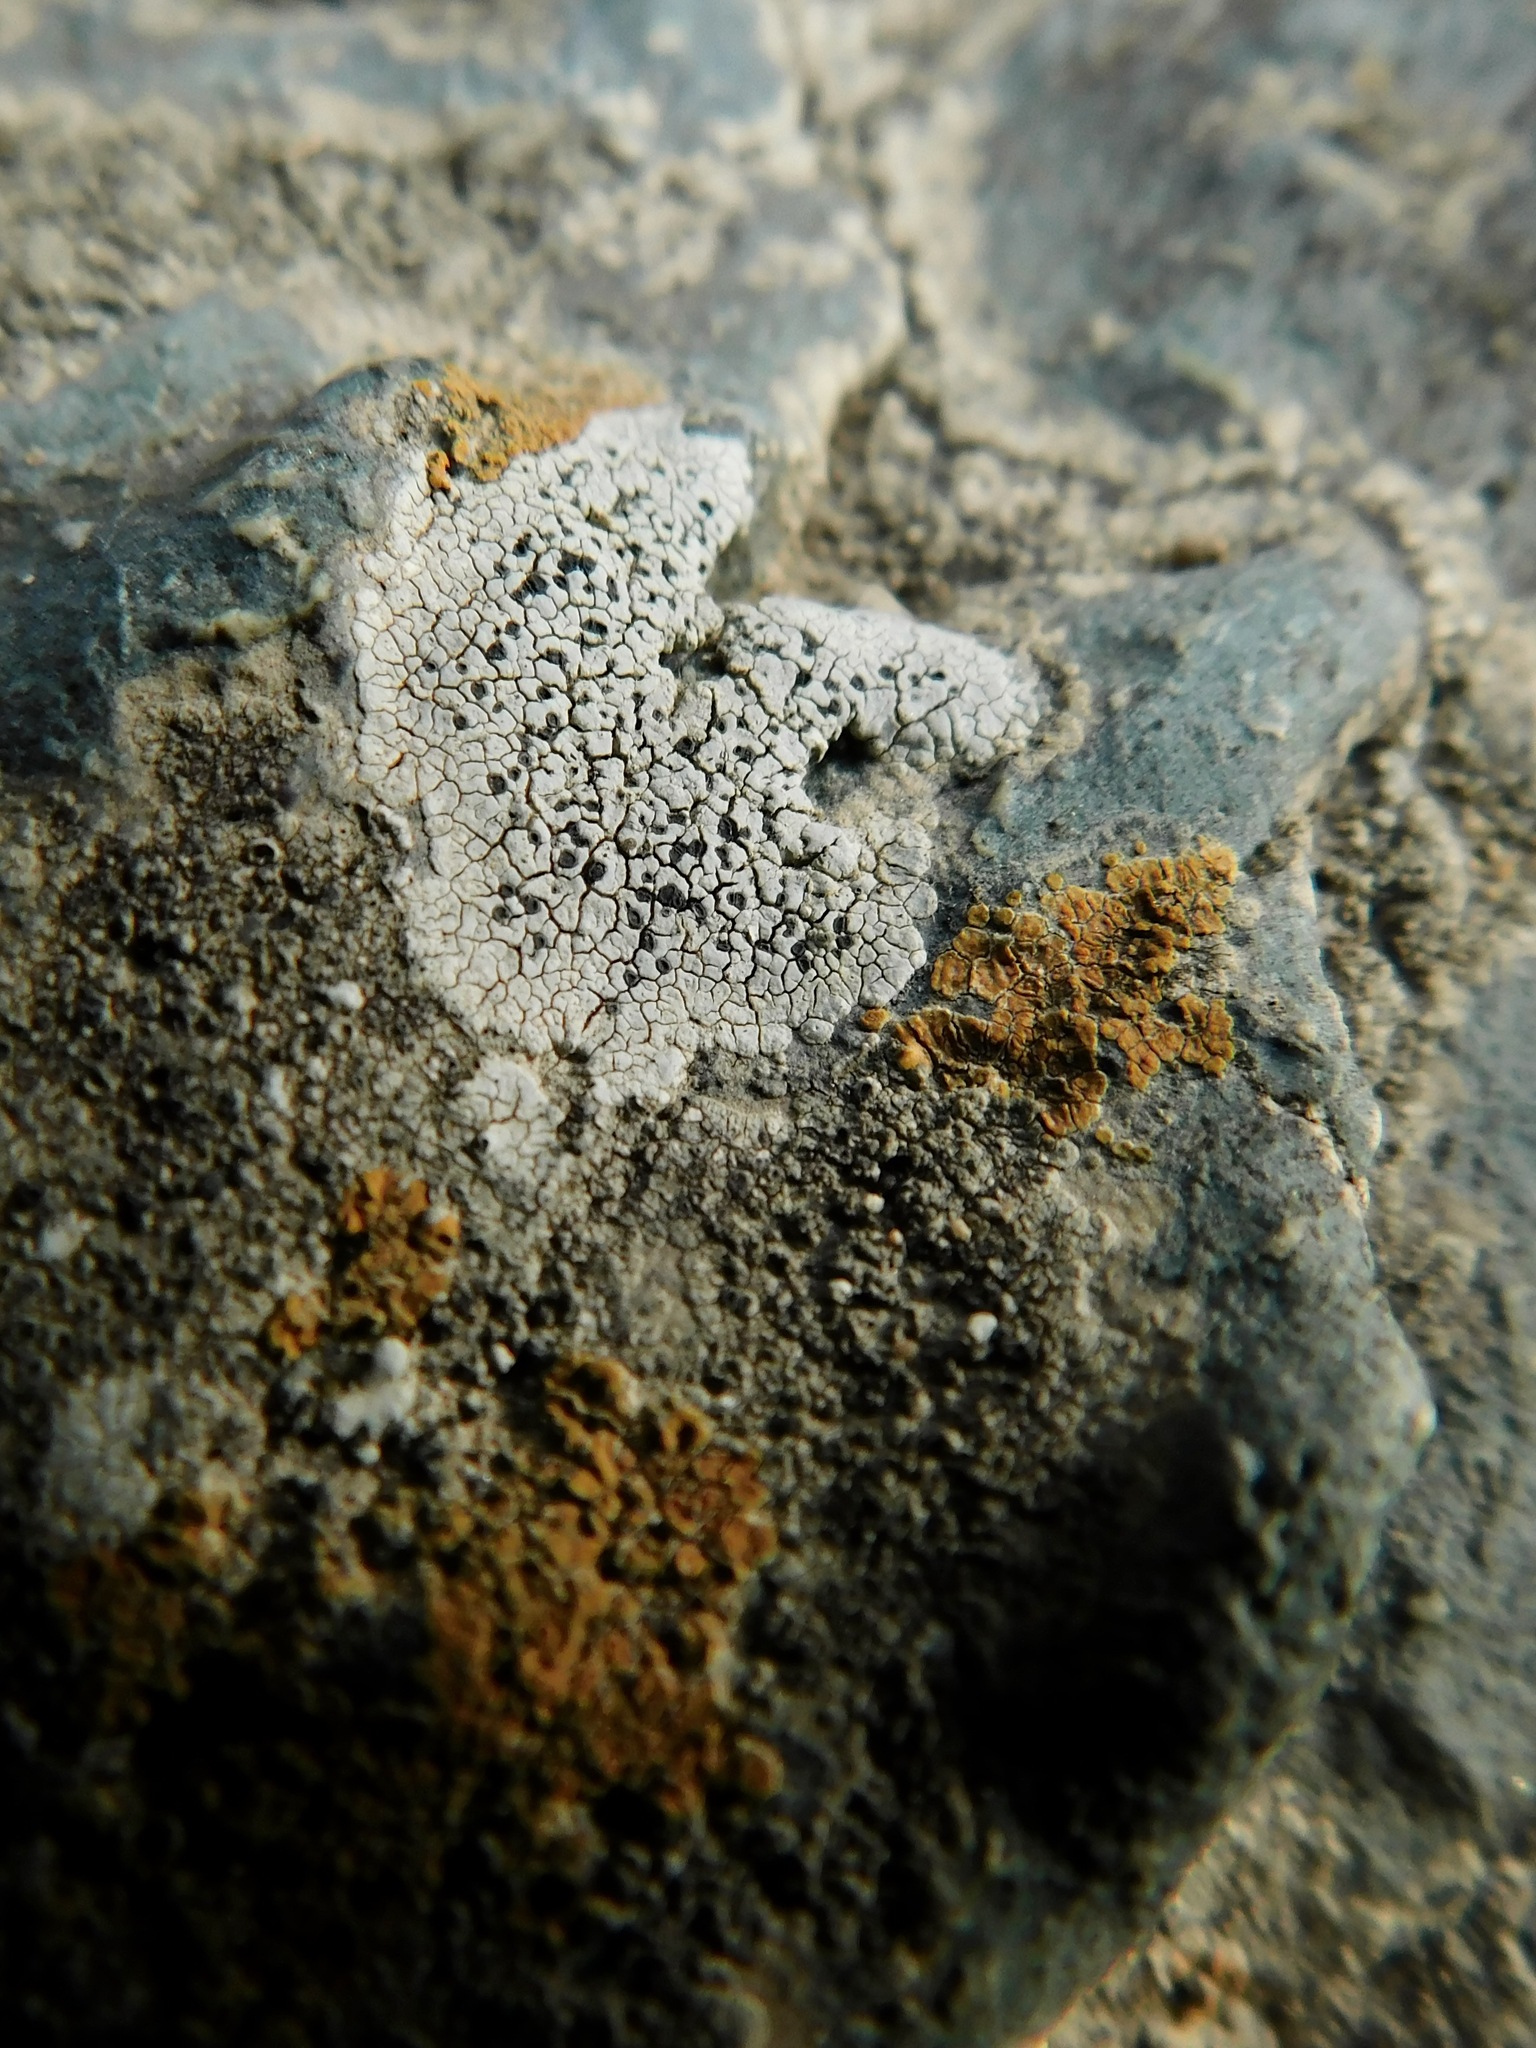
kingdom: Fungi
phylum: Ascomycota
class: Lecanoromycetes
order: Pertusariales
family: Megasporaceae
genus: Aspicilia
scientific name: Aspicilia aquatica
